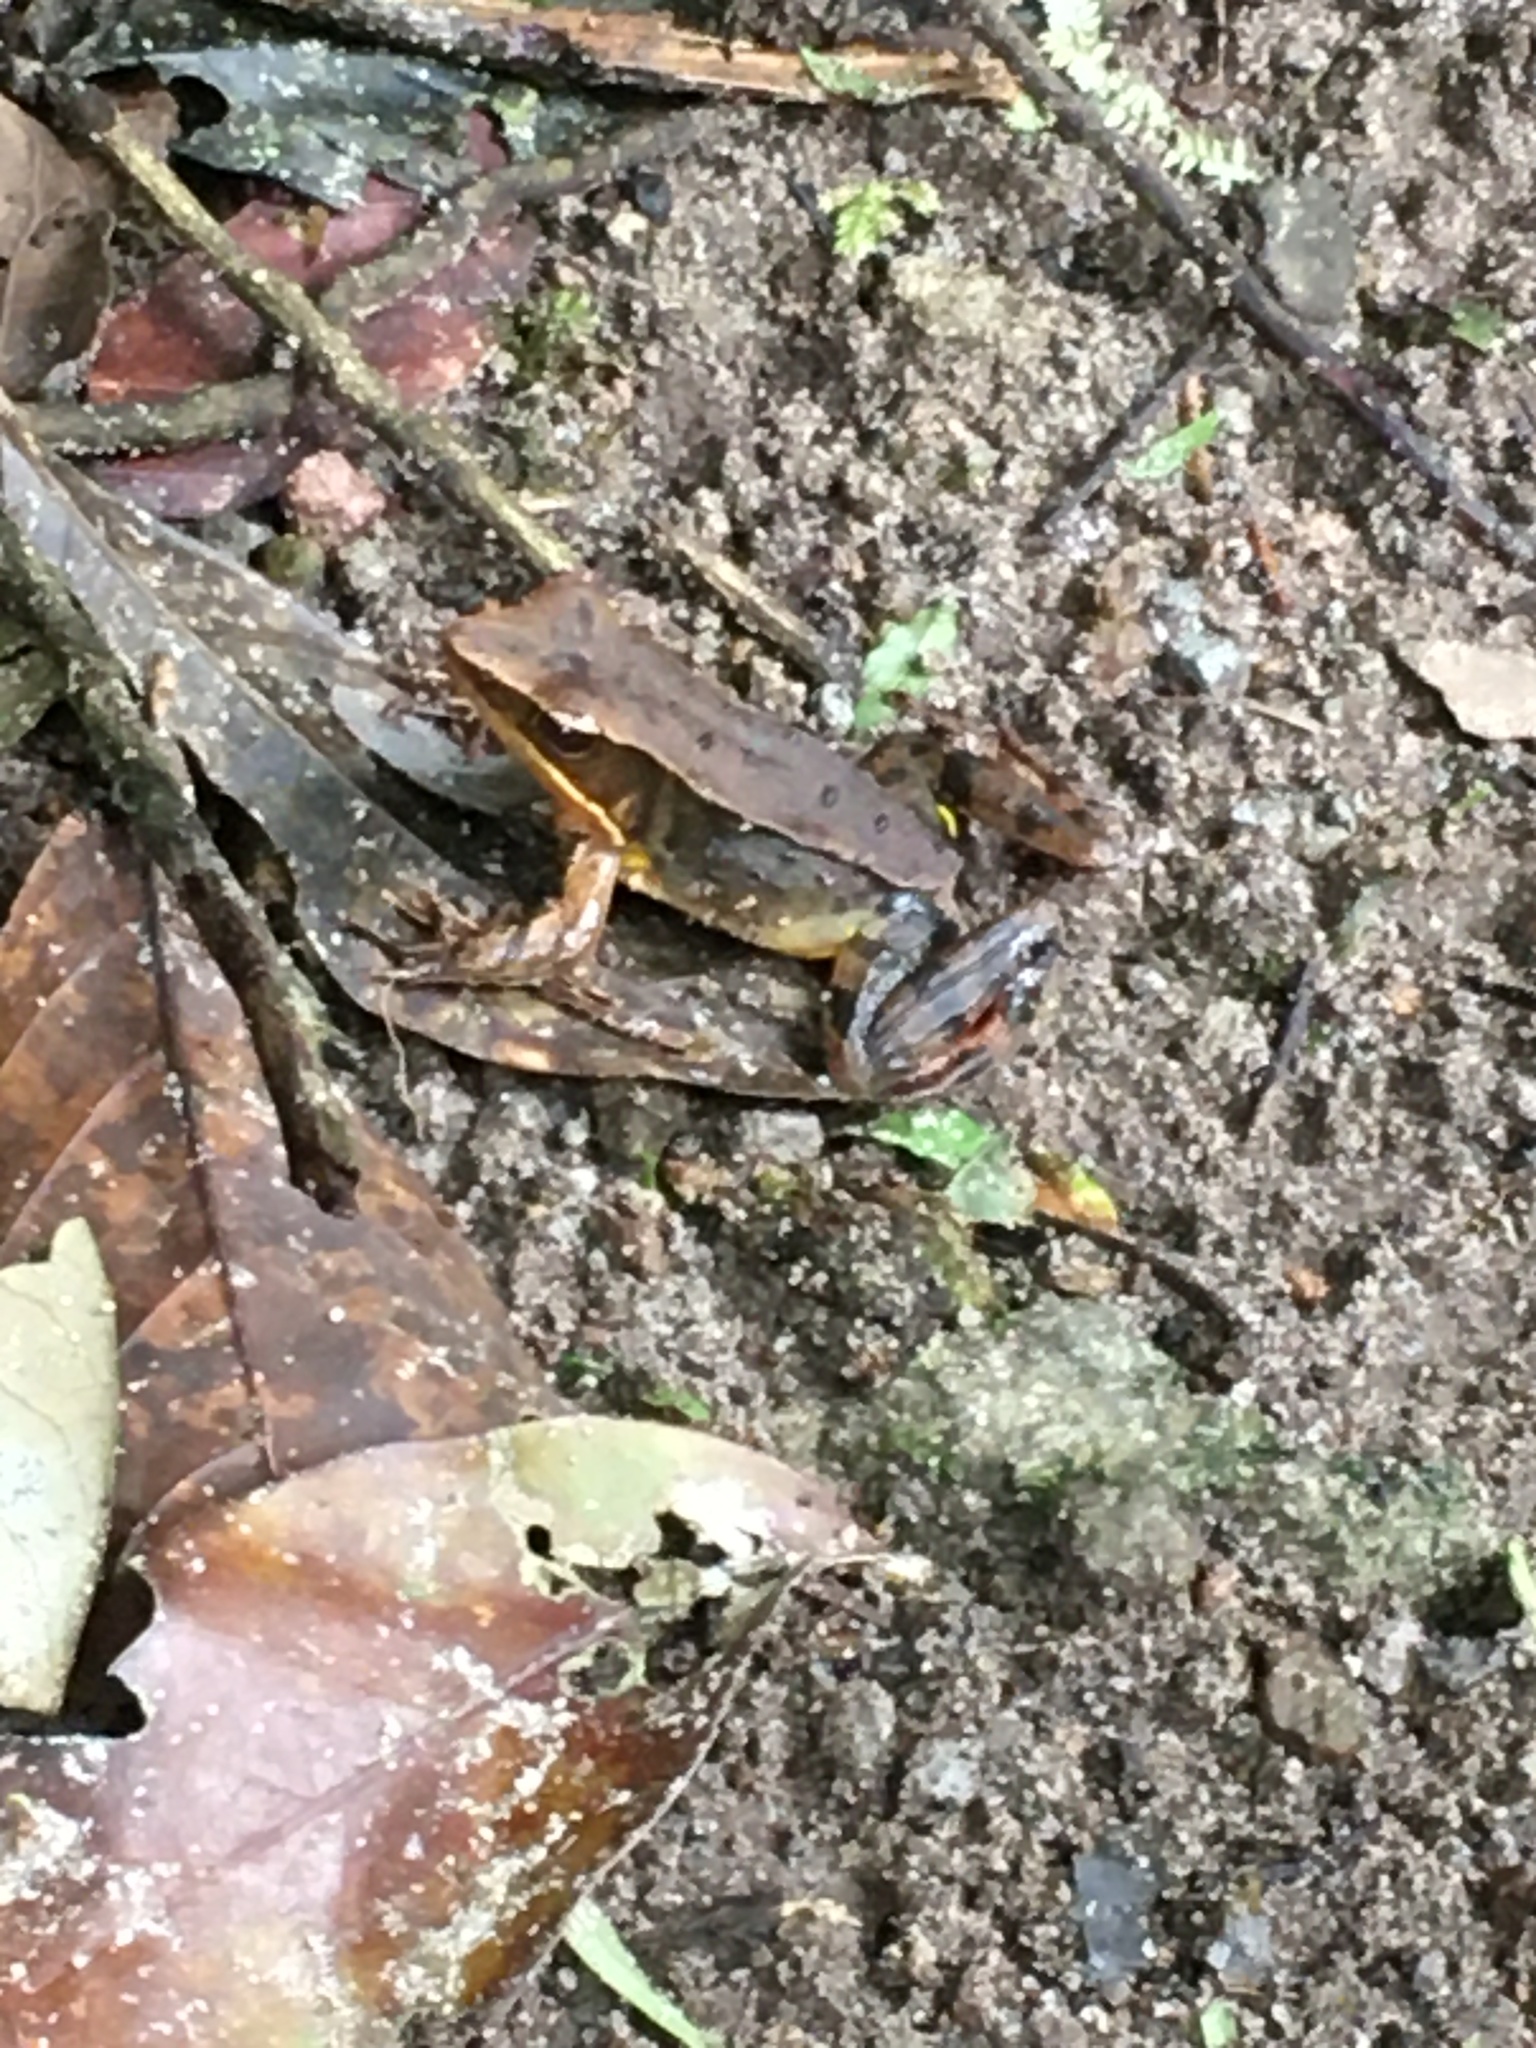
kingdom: Animalia
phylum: Chordata
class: Amphibia
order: Anura
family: Ranidae
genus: Lithobates
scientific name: Lithobates warszewitschii
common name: Warszewitsch's frog
